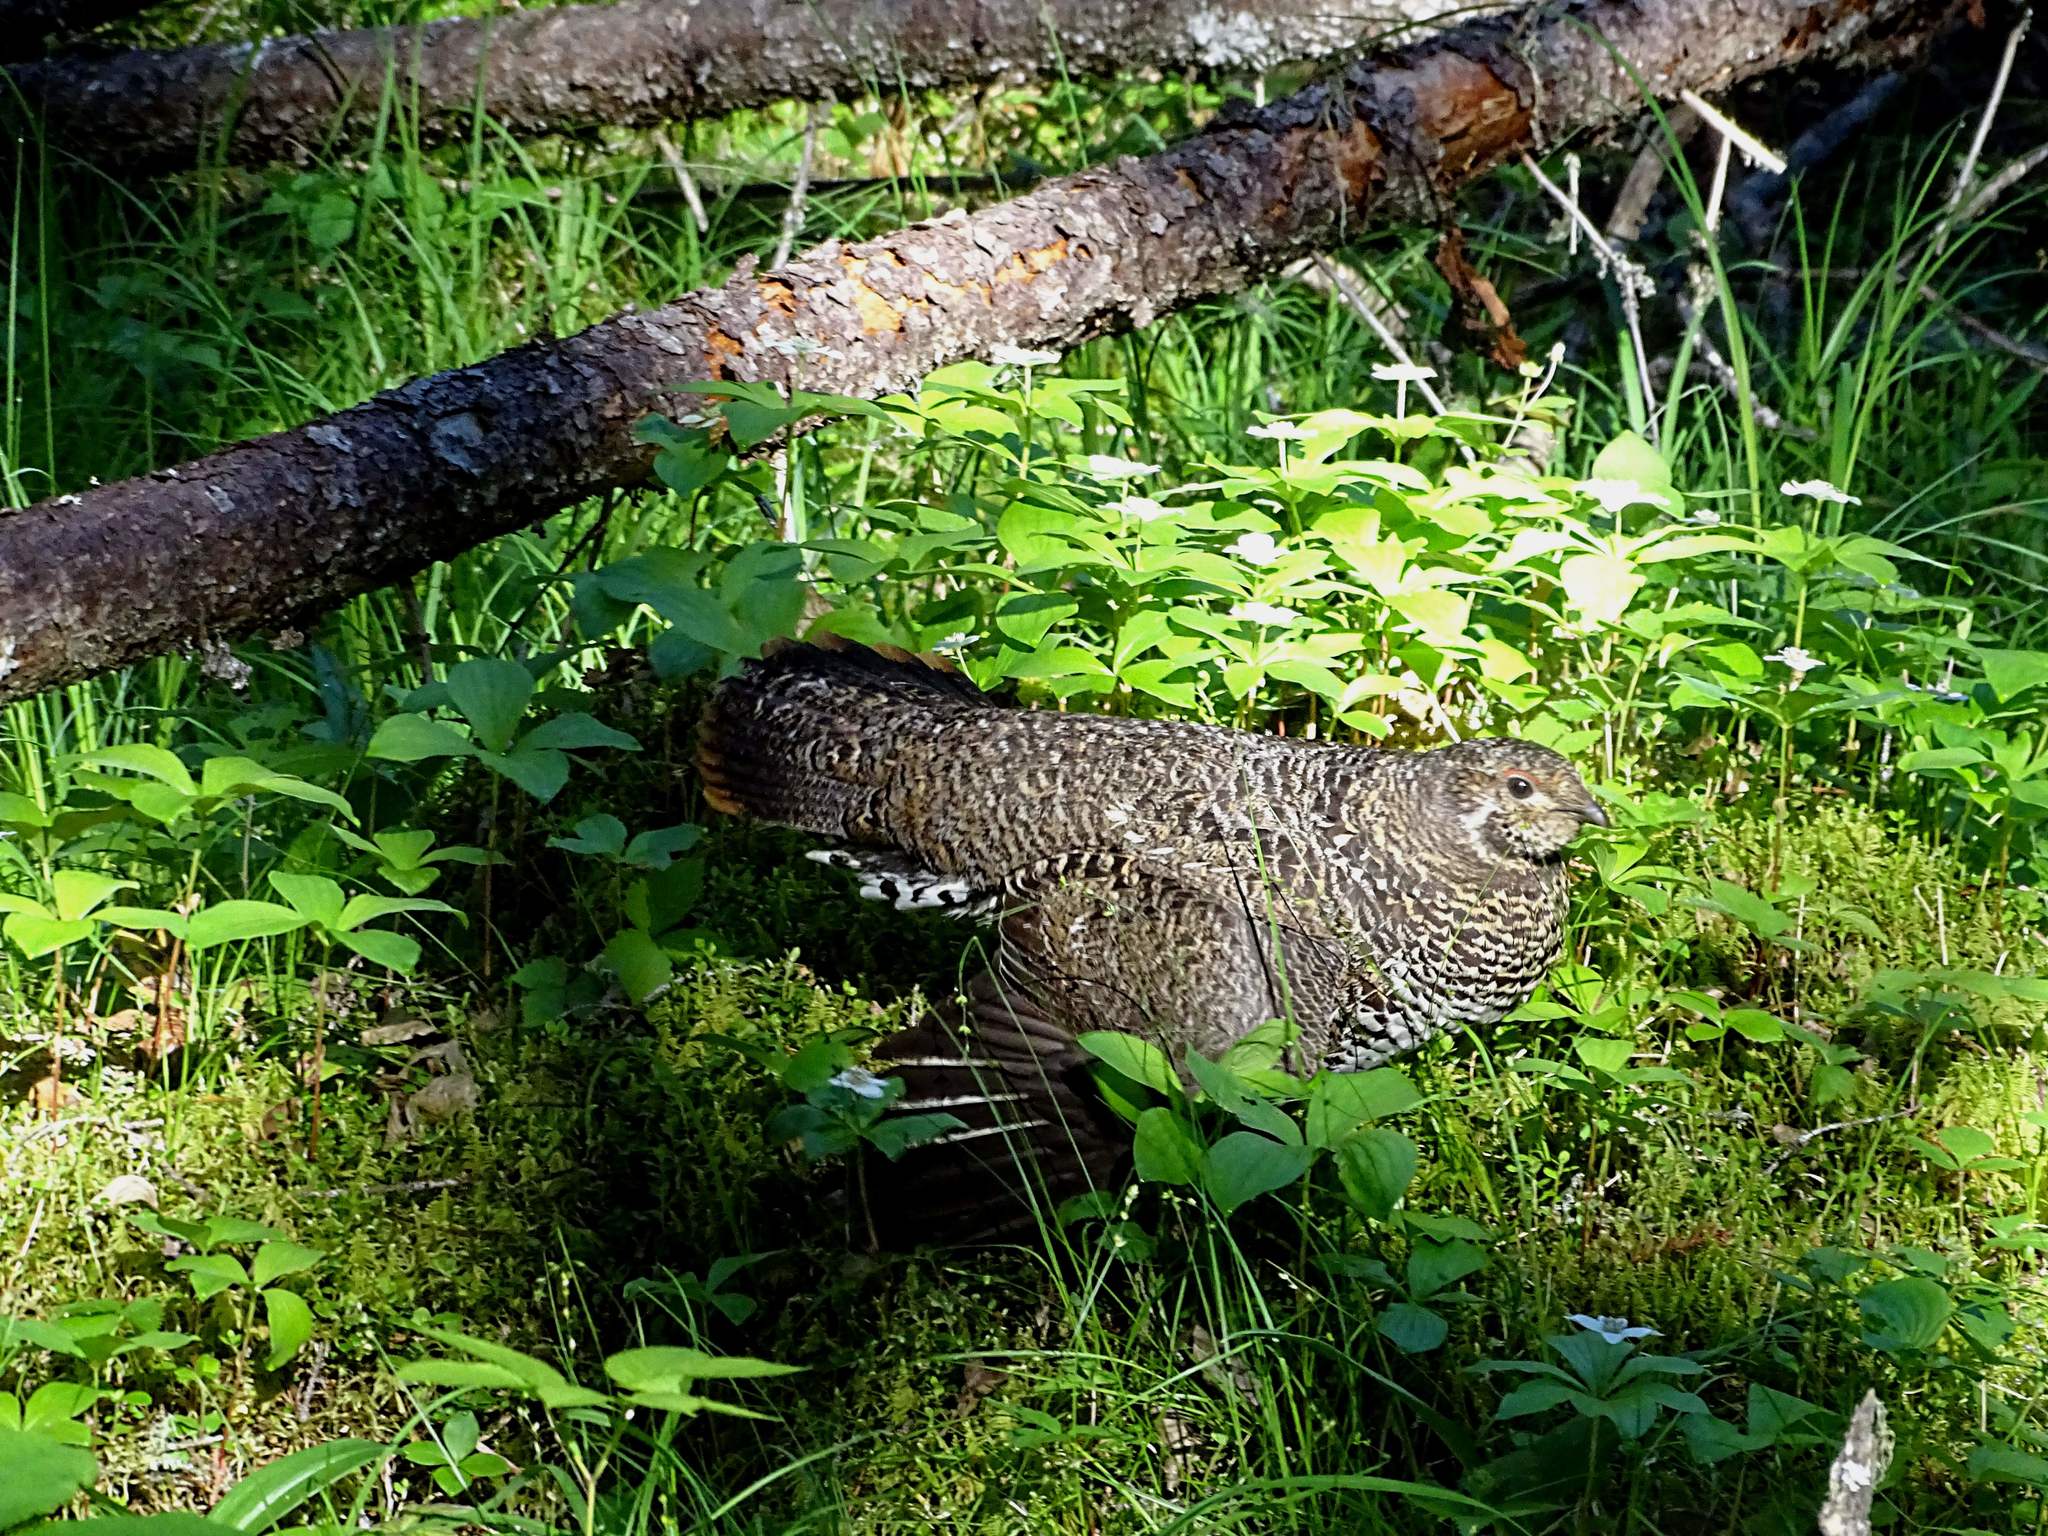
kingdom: Animalia
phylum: Chordata
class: Aves
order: Galliformes
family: Phasianidae
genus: Canachites
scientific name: Canachites canadensis
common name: Spruce grouse
